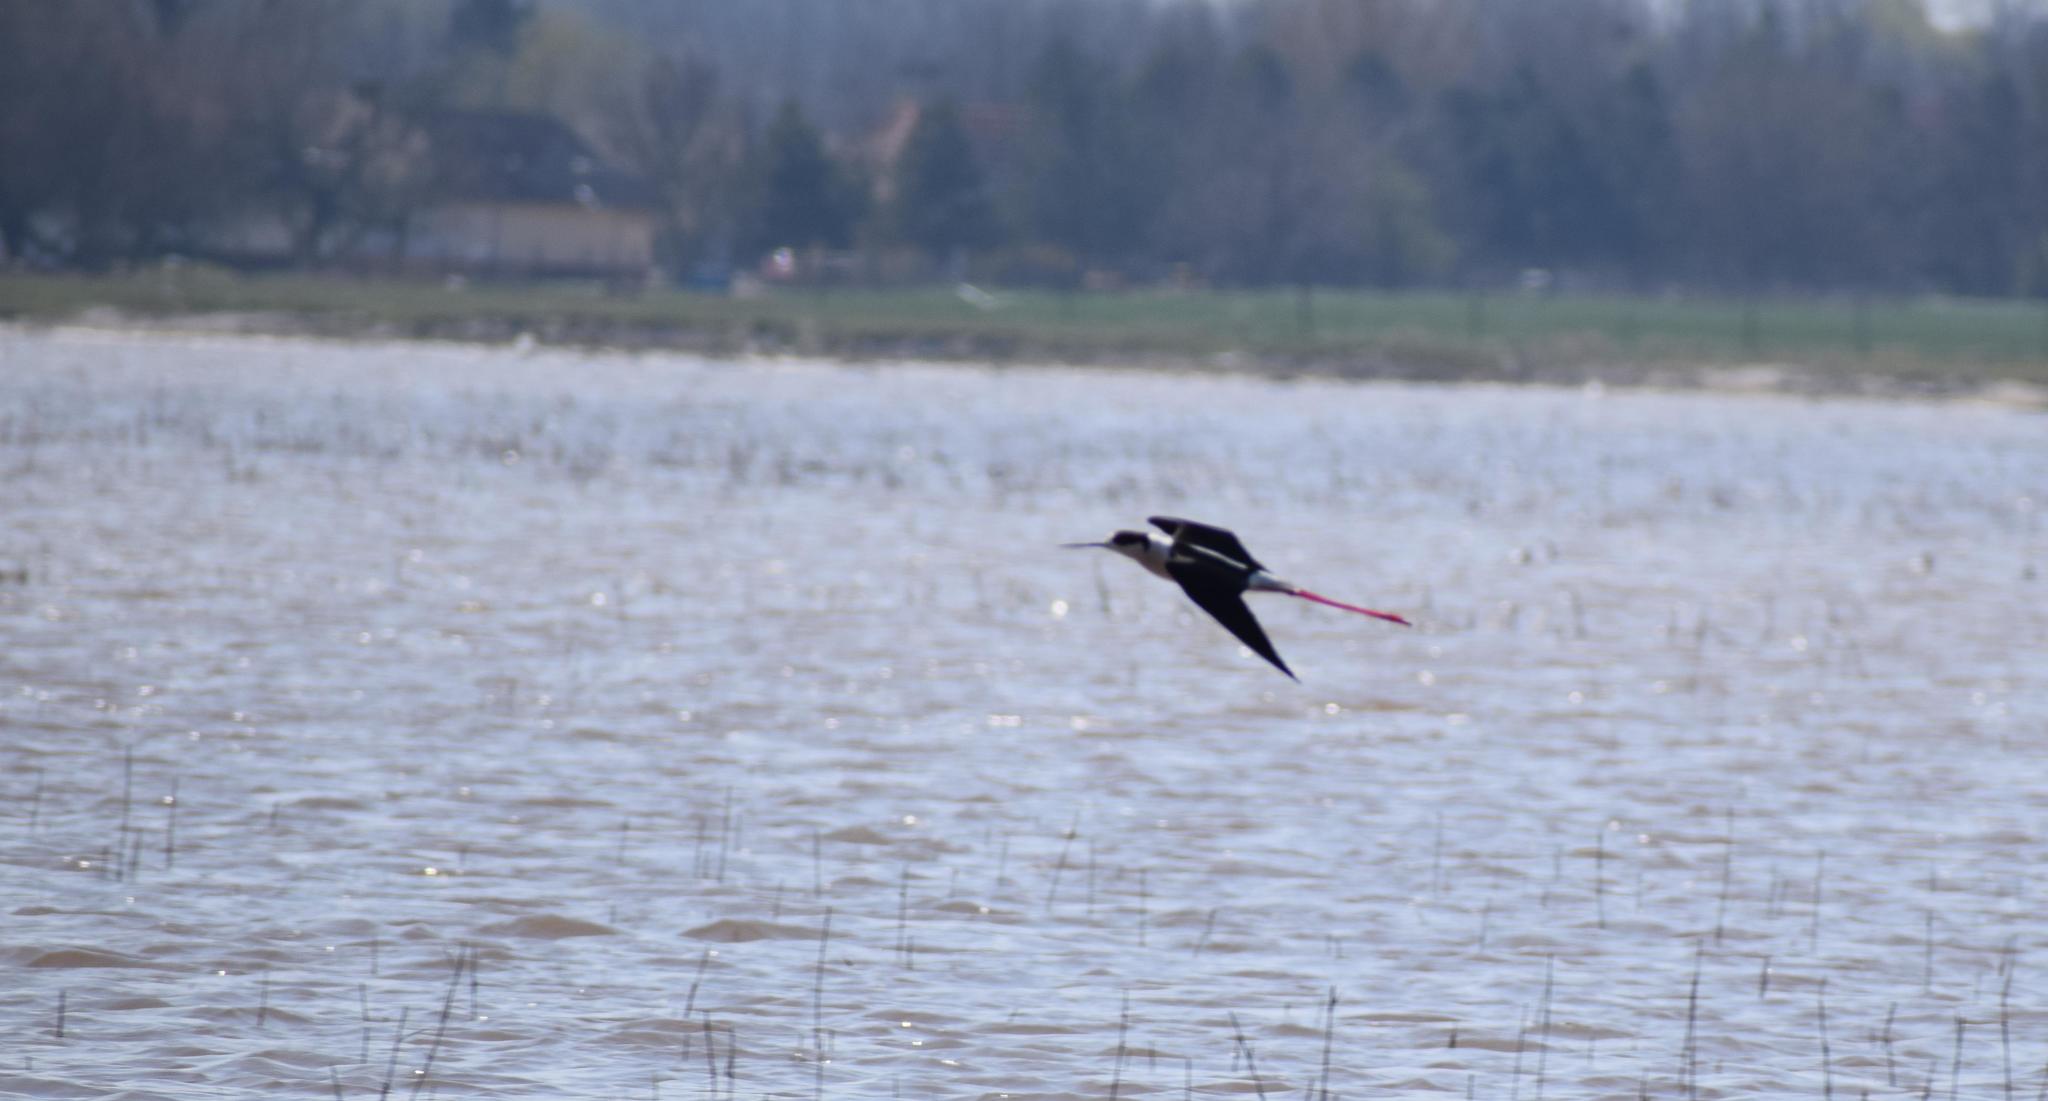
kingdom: Animalia
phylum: Chordata
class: Aves
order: Charadriiformes
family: Recurvirostridae
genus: Himantopus
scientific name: Himantopus himantopus
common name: Black-winged stilt
